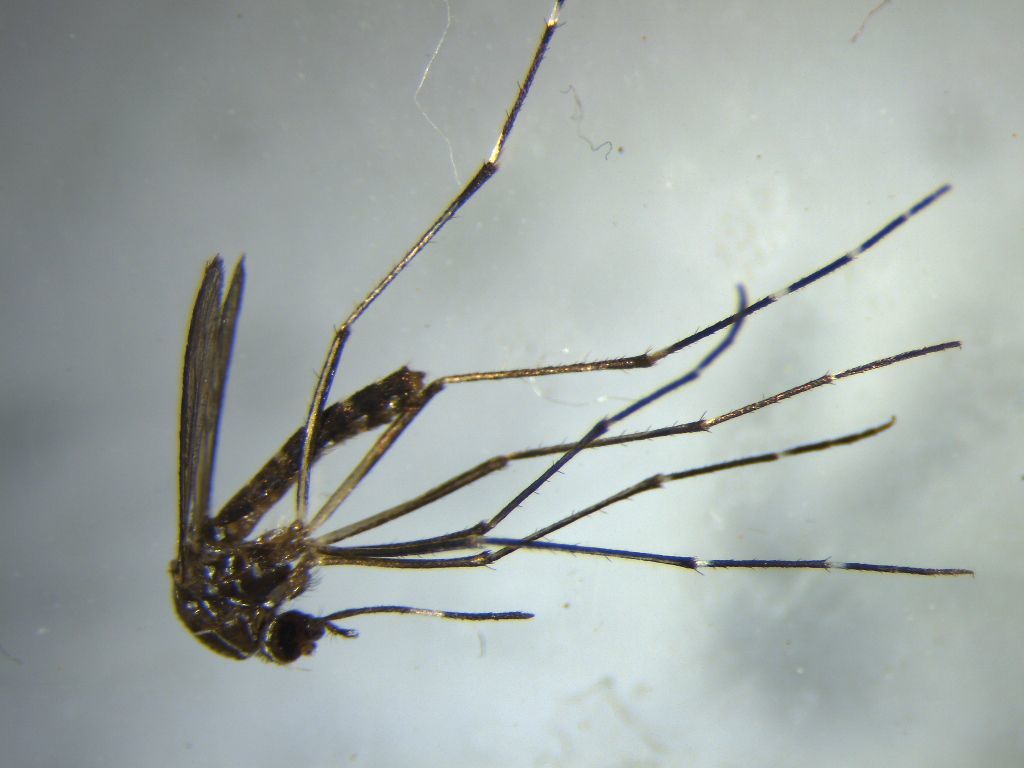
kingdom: Animalia
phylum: Arthropoda
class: Insecta
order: Diptera
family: Culicidae
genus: Aedes
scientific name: Aedes notoscriptus
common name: Australian backyard mosquito
